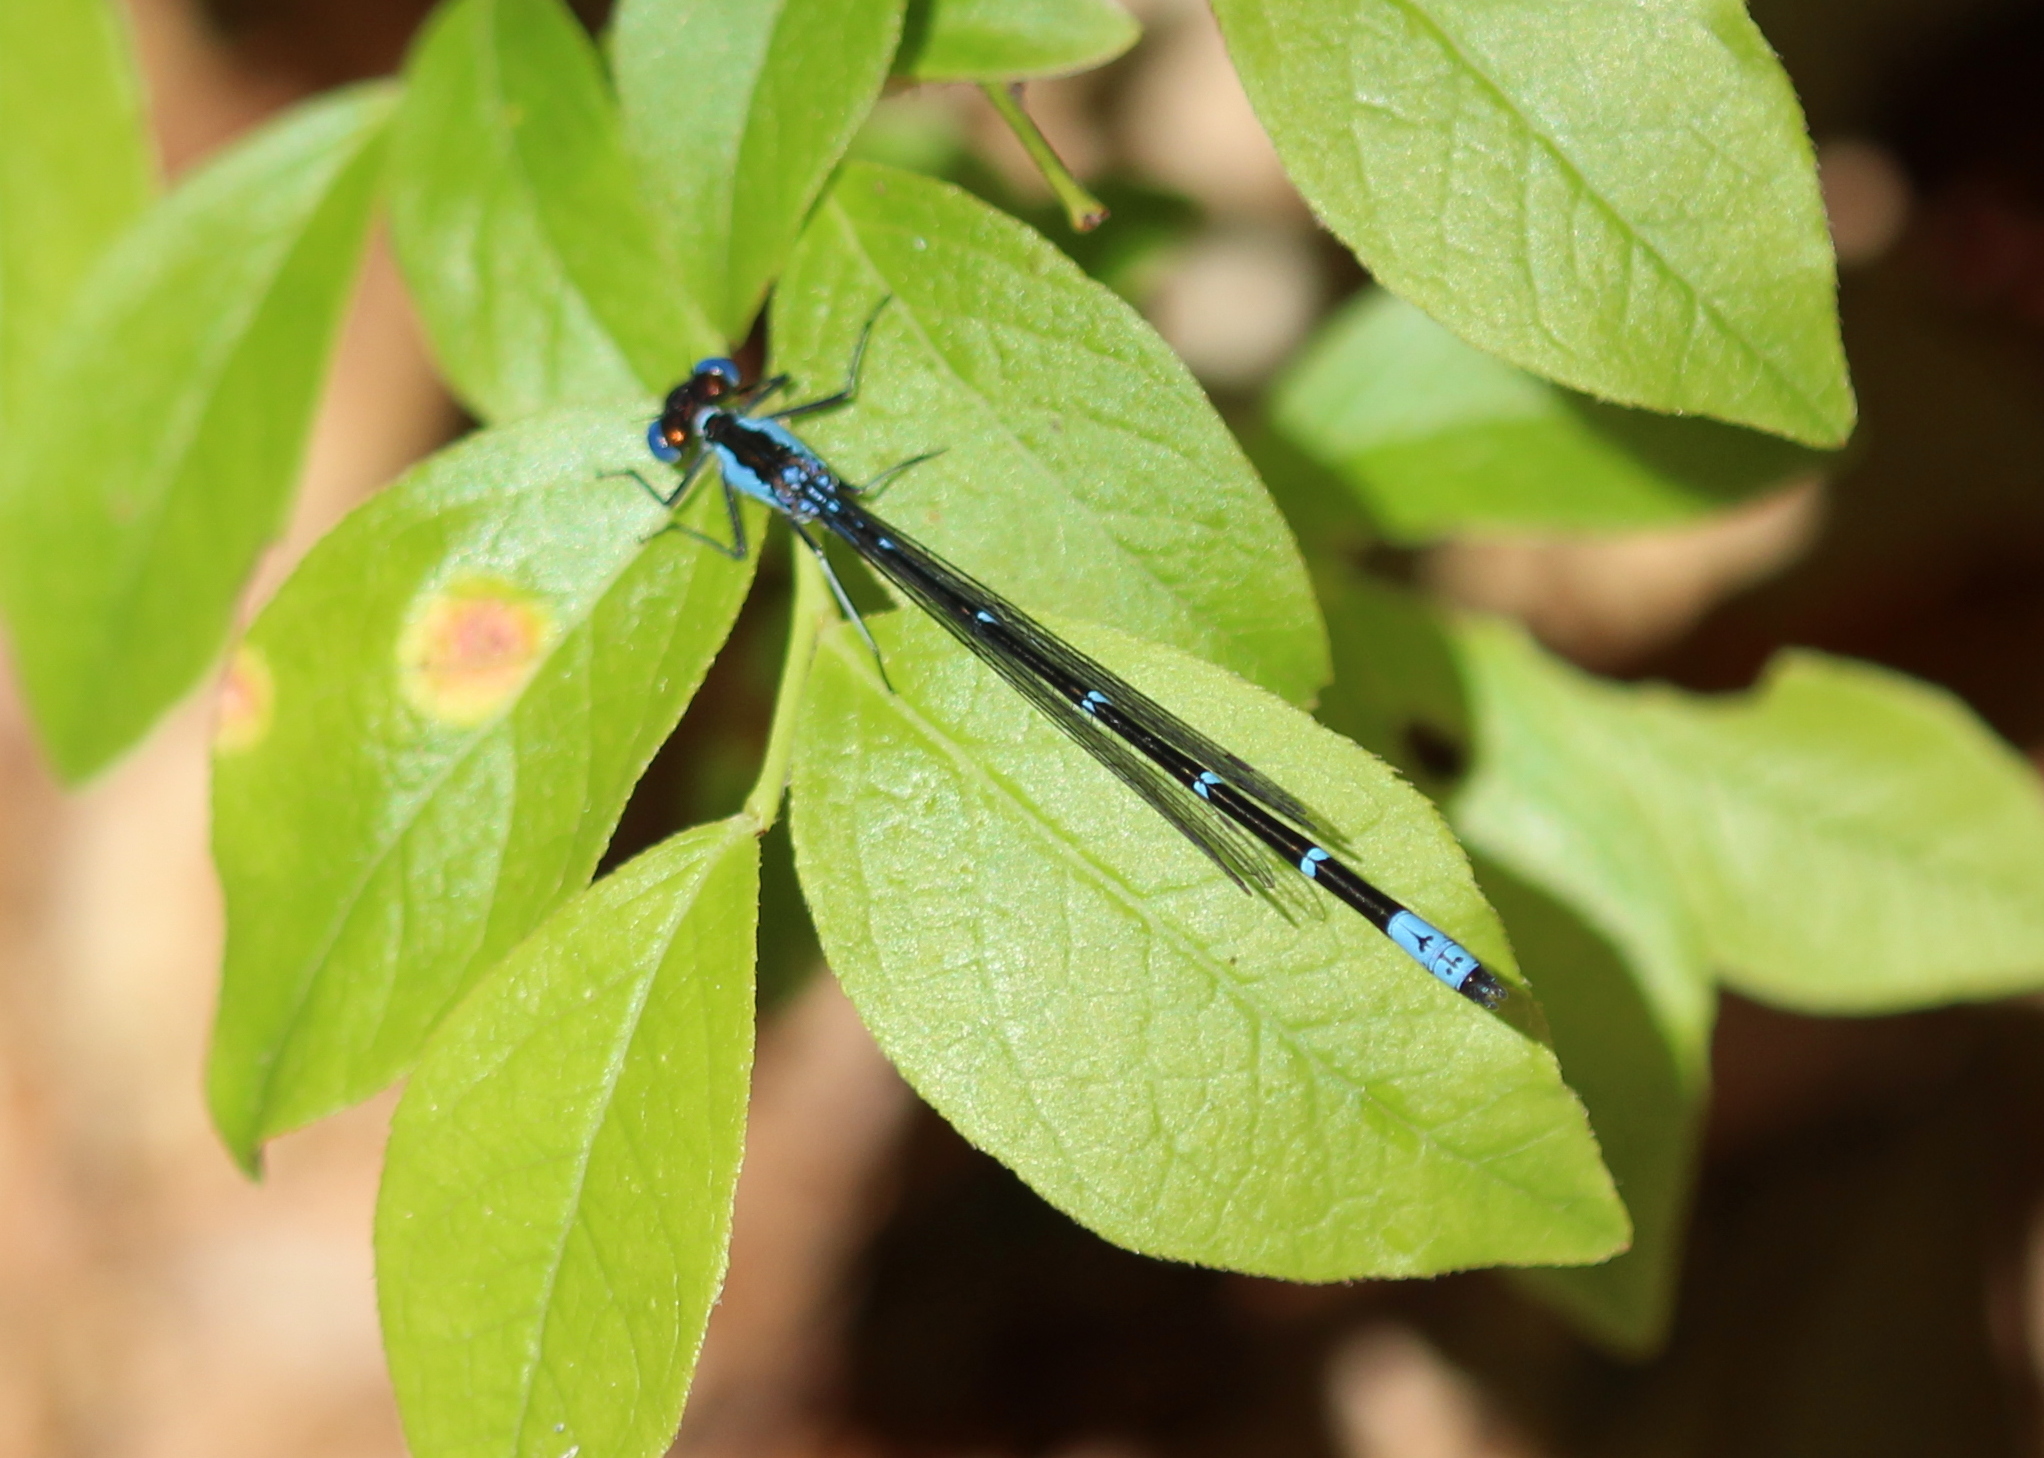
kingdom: Animalia
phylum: Arthropoda
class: Insecta
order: Odonata
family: Coenagrionidae
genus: Chromagrion
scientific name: Chromagrion conditum
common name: Aurora damsel
